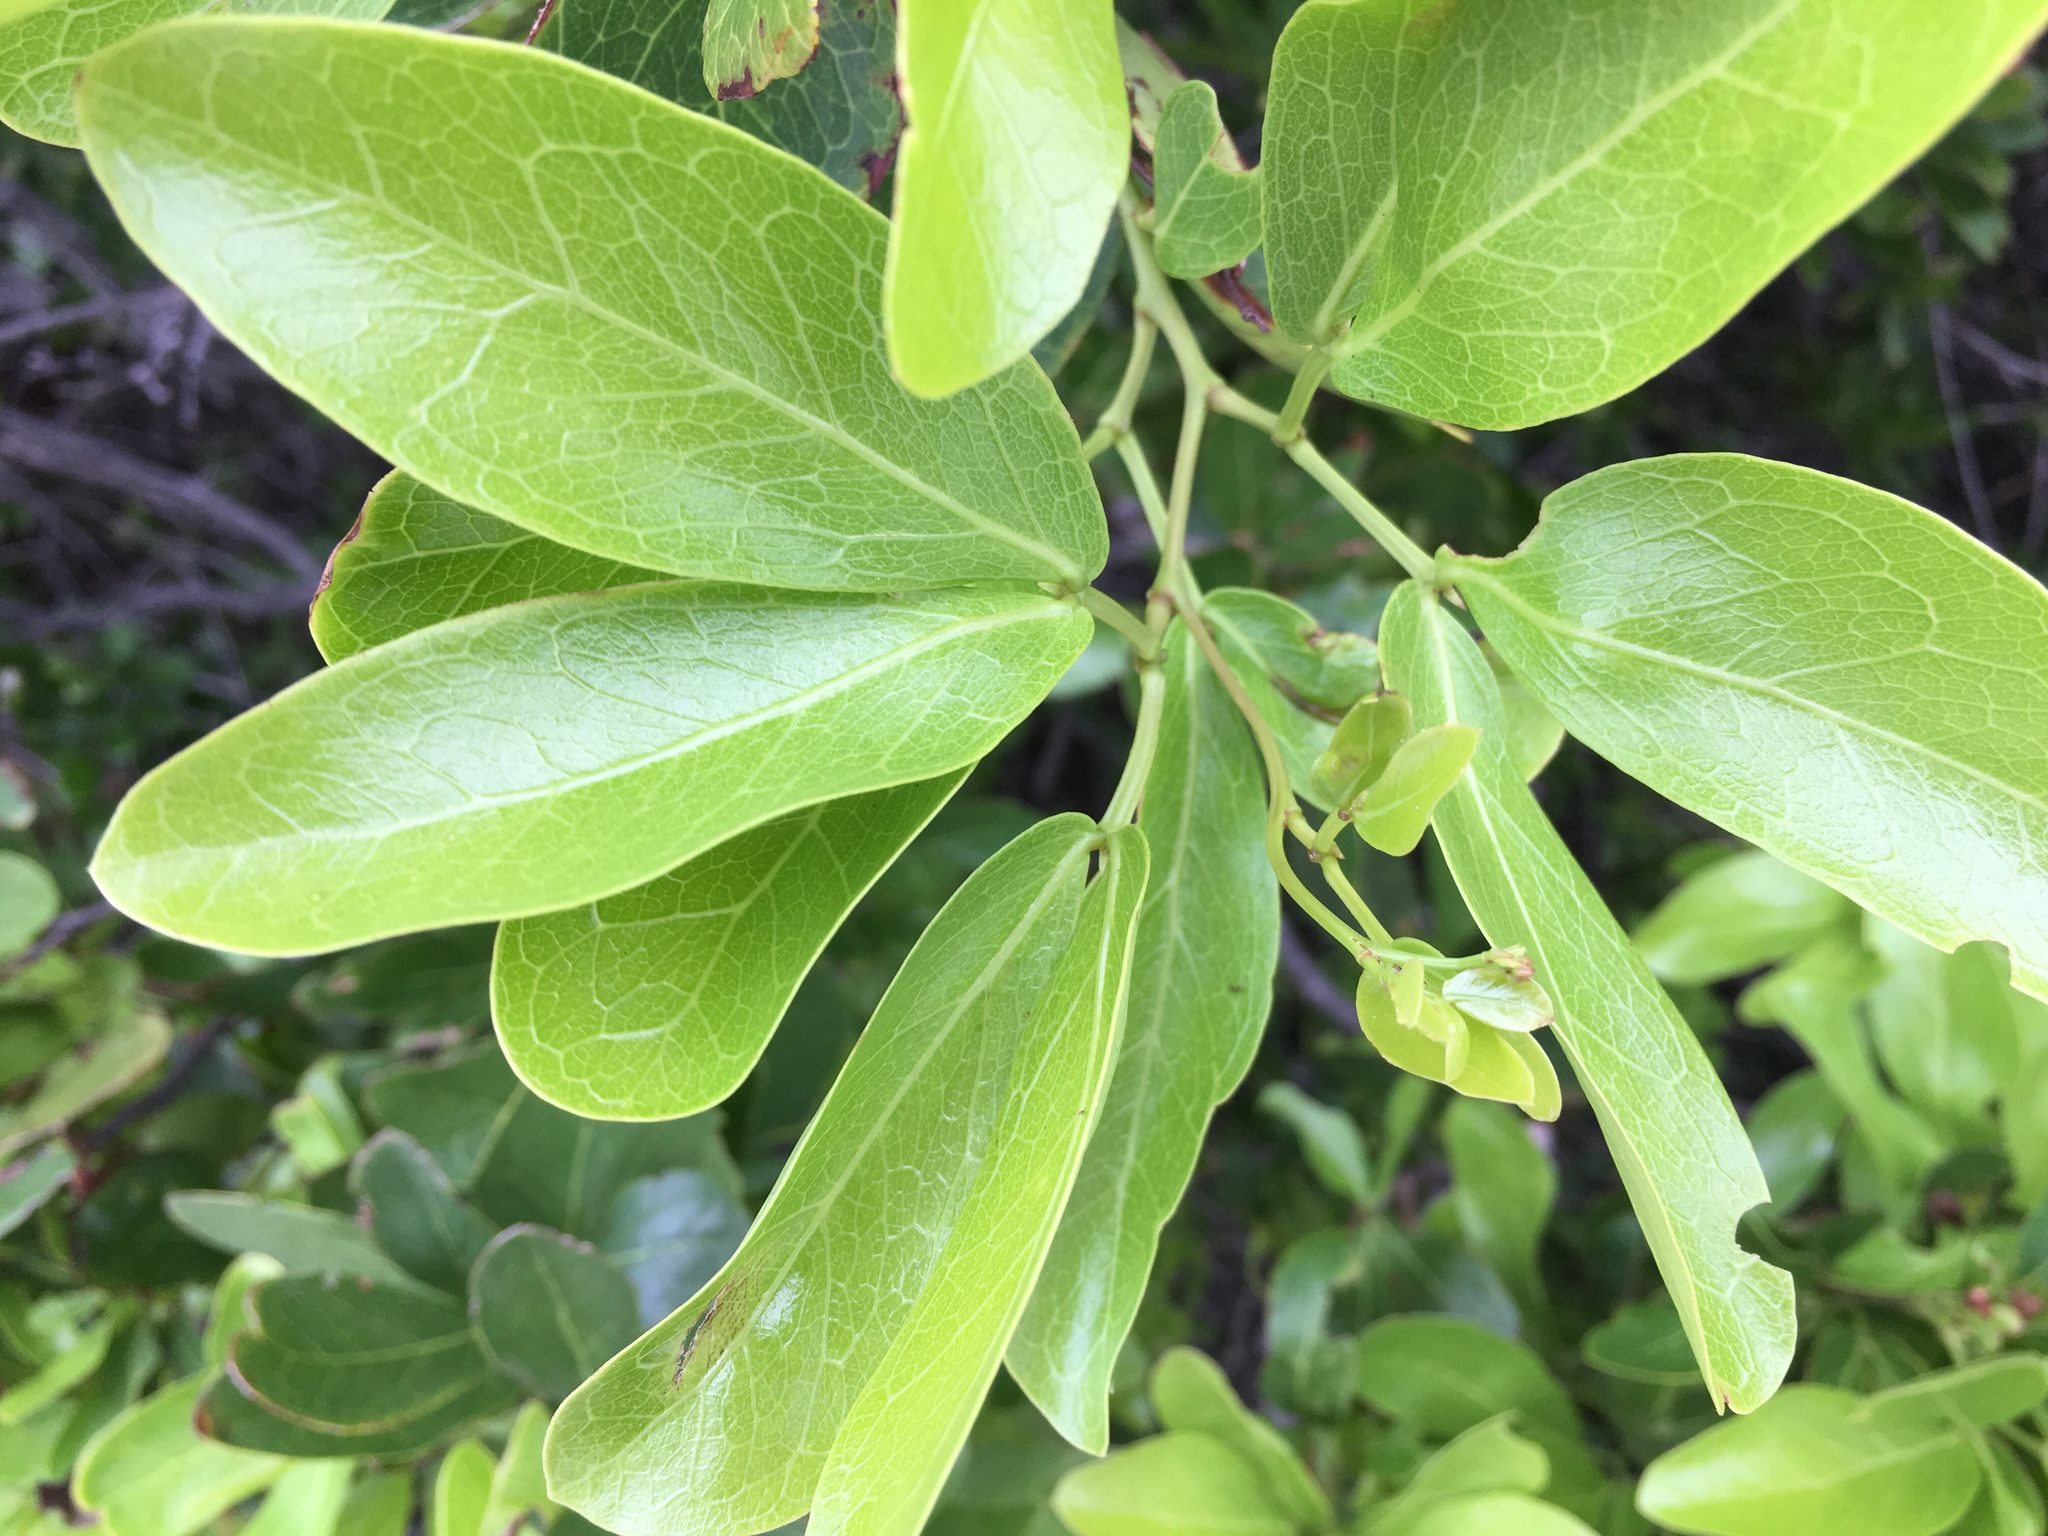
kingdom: Plantae
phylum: Tracheophyta
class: Magnoliopsida
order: Fabales
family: Fabaceae
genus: Pithecellobium
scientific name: Pithecellobium keyense
